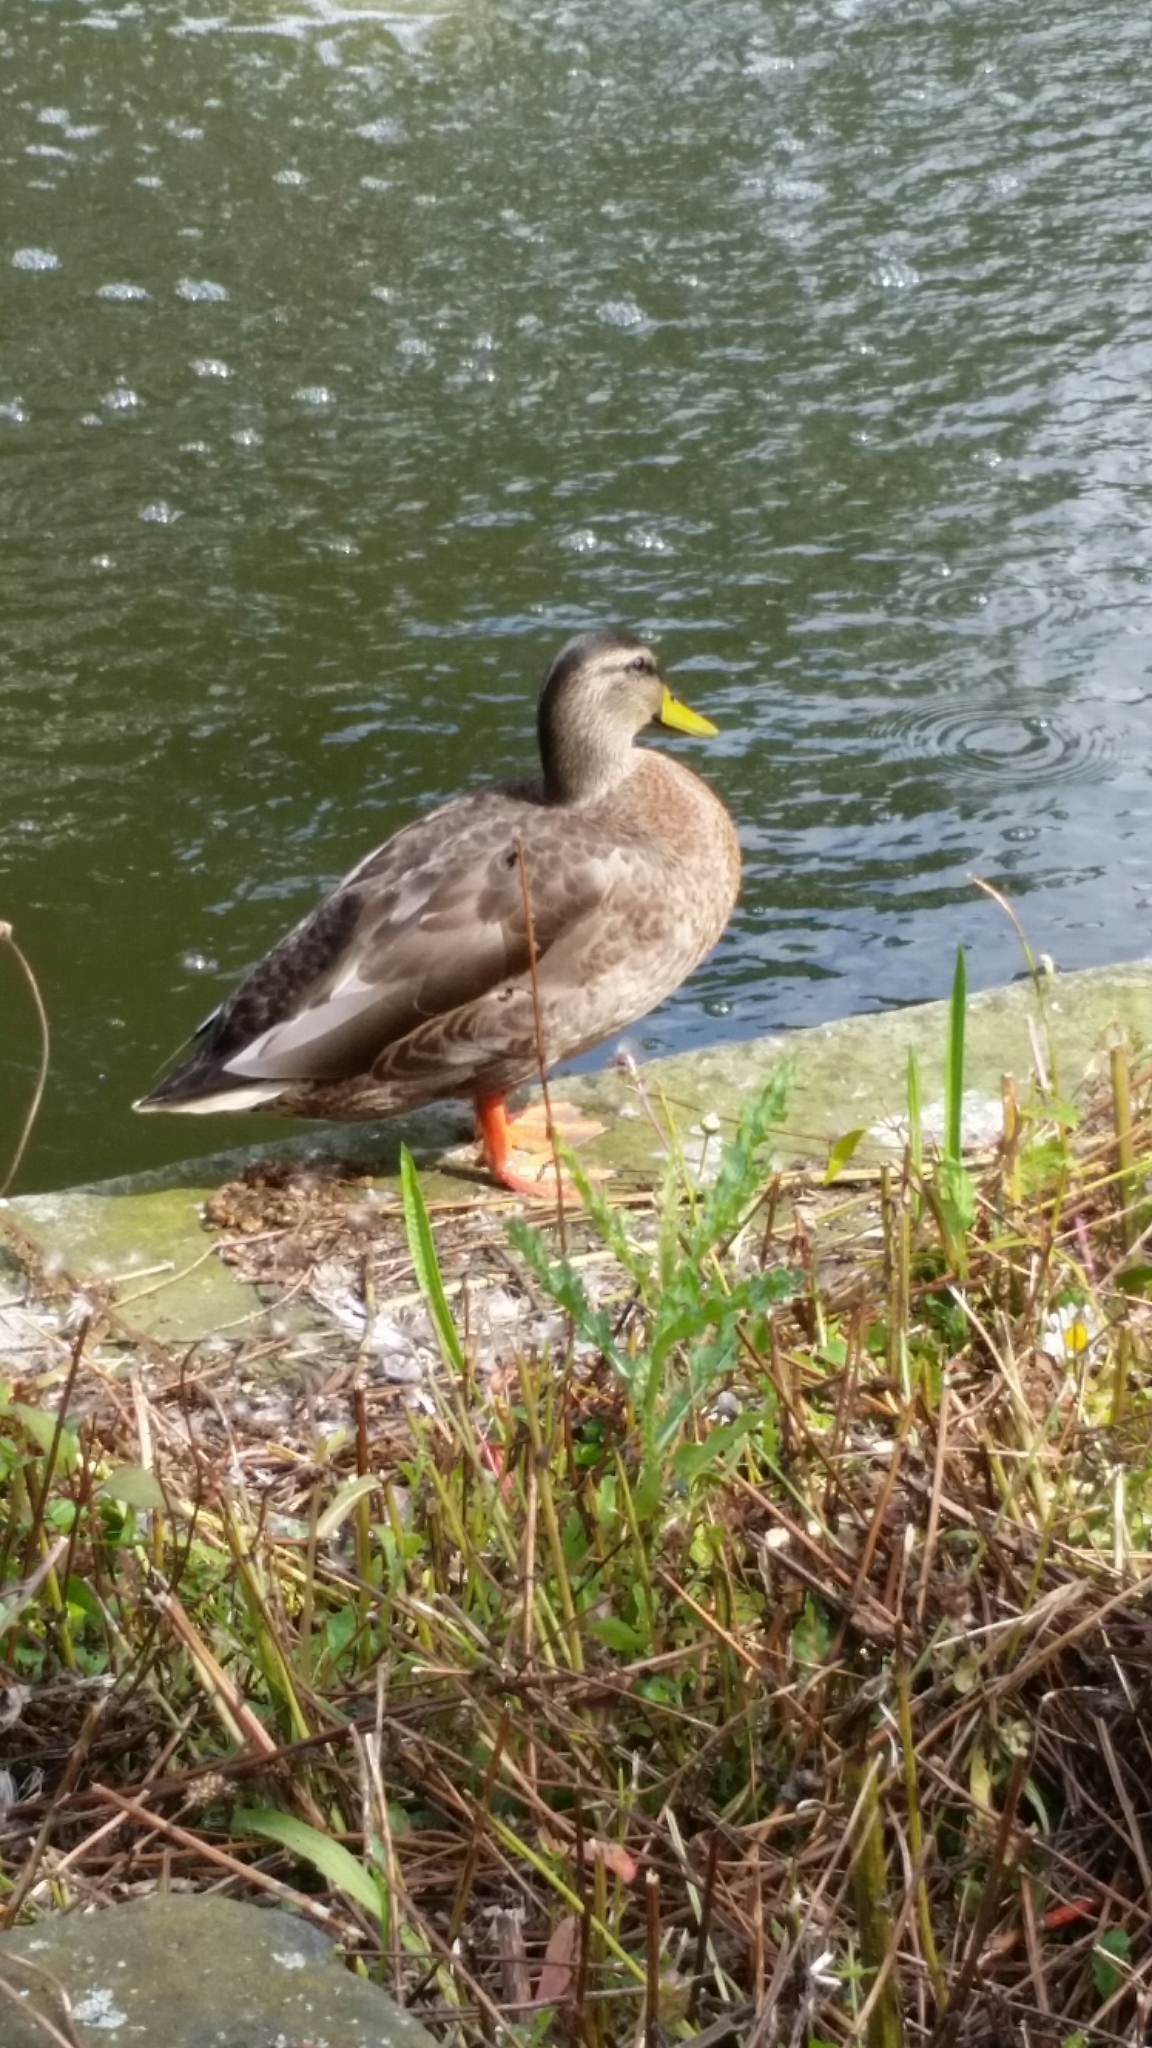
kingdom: Animalia
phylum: Chordata
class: Aves
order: Anseriformes
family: Anatidae
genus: Anas
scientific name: Anas platyrhynchos
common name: Mallard
